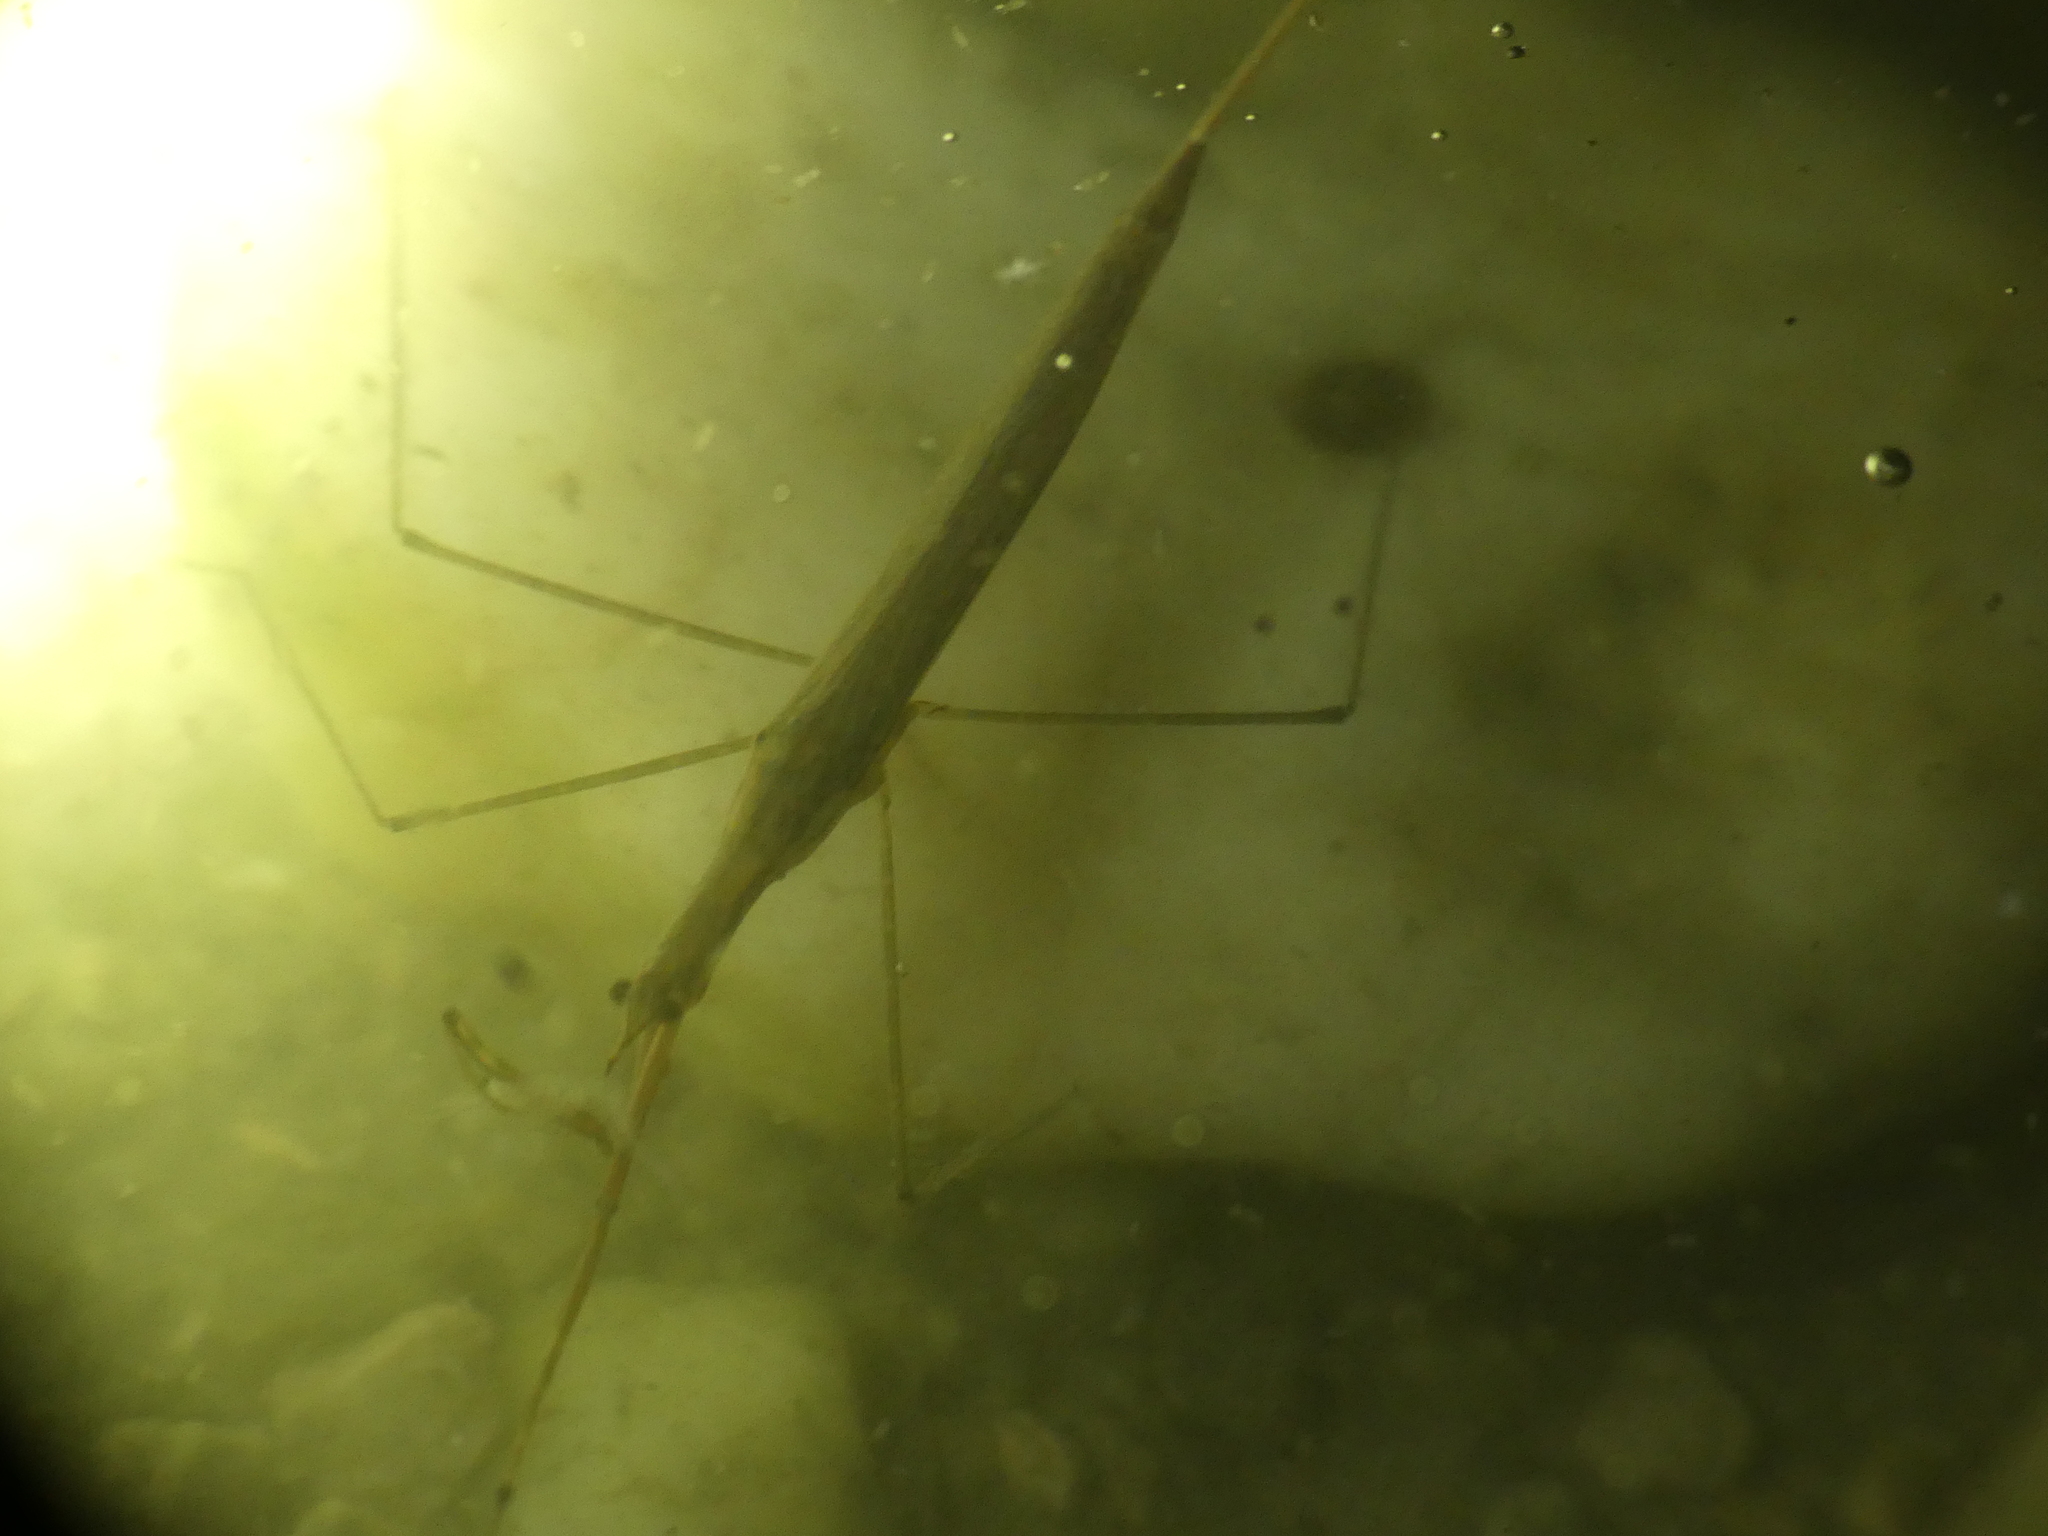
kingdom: Animalia
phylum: Arthropoda
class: Insecta
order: Hemiptera
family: Nepidae
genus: Ranatra
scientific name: Ranatra linearis
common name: Water stick insect
